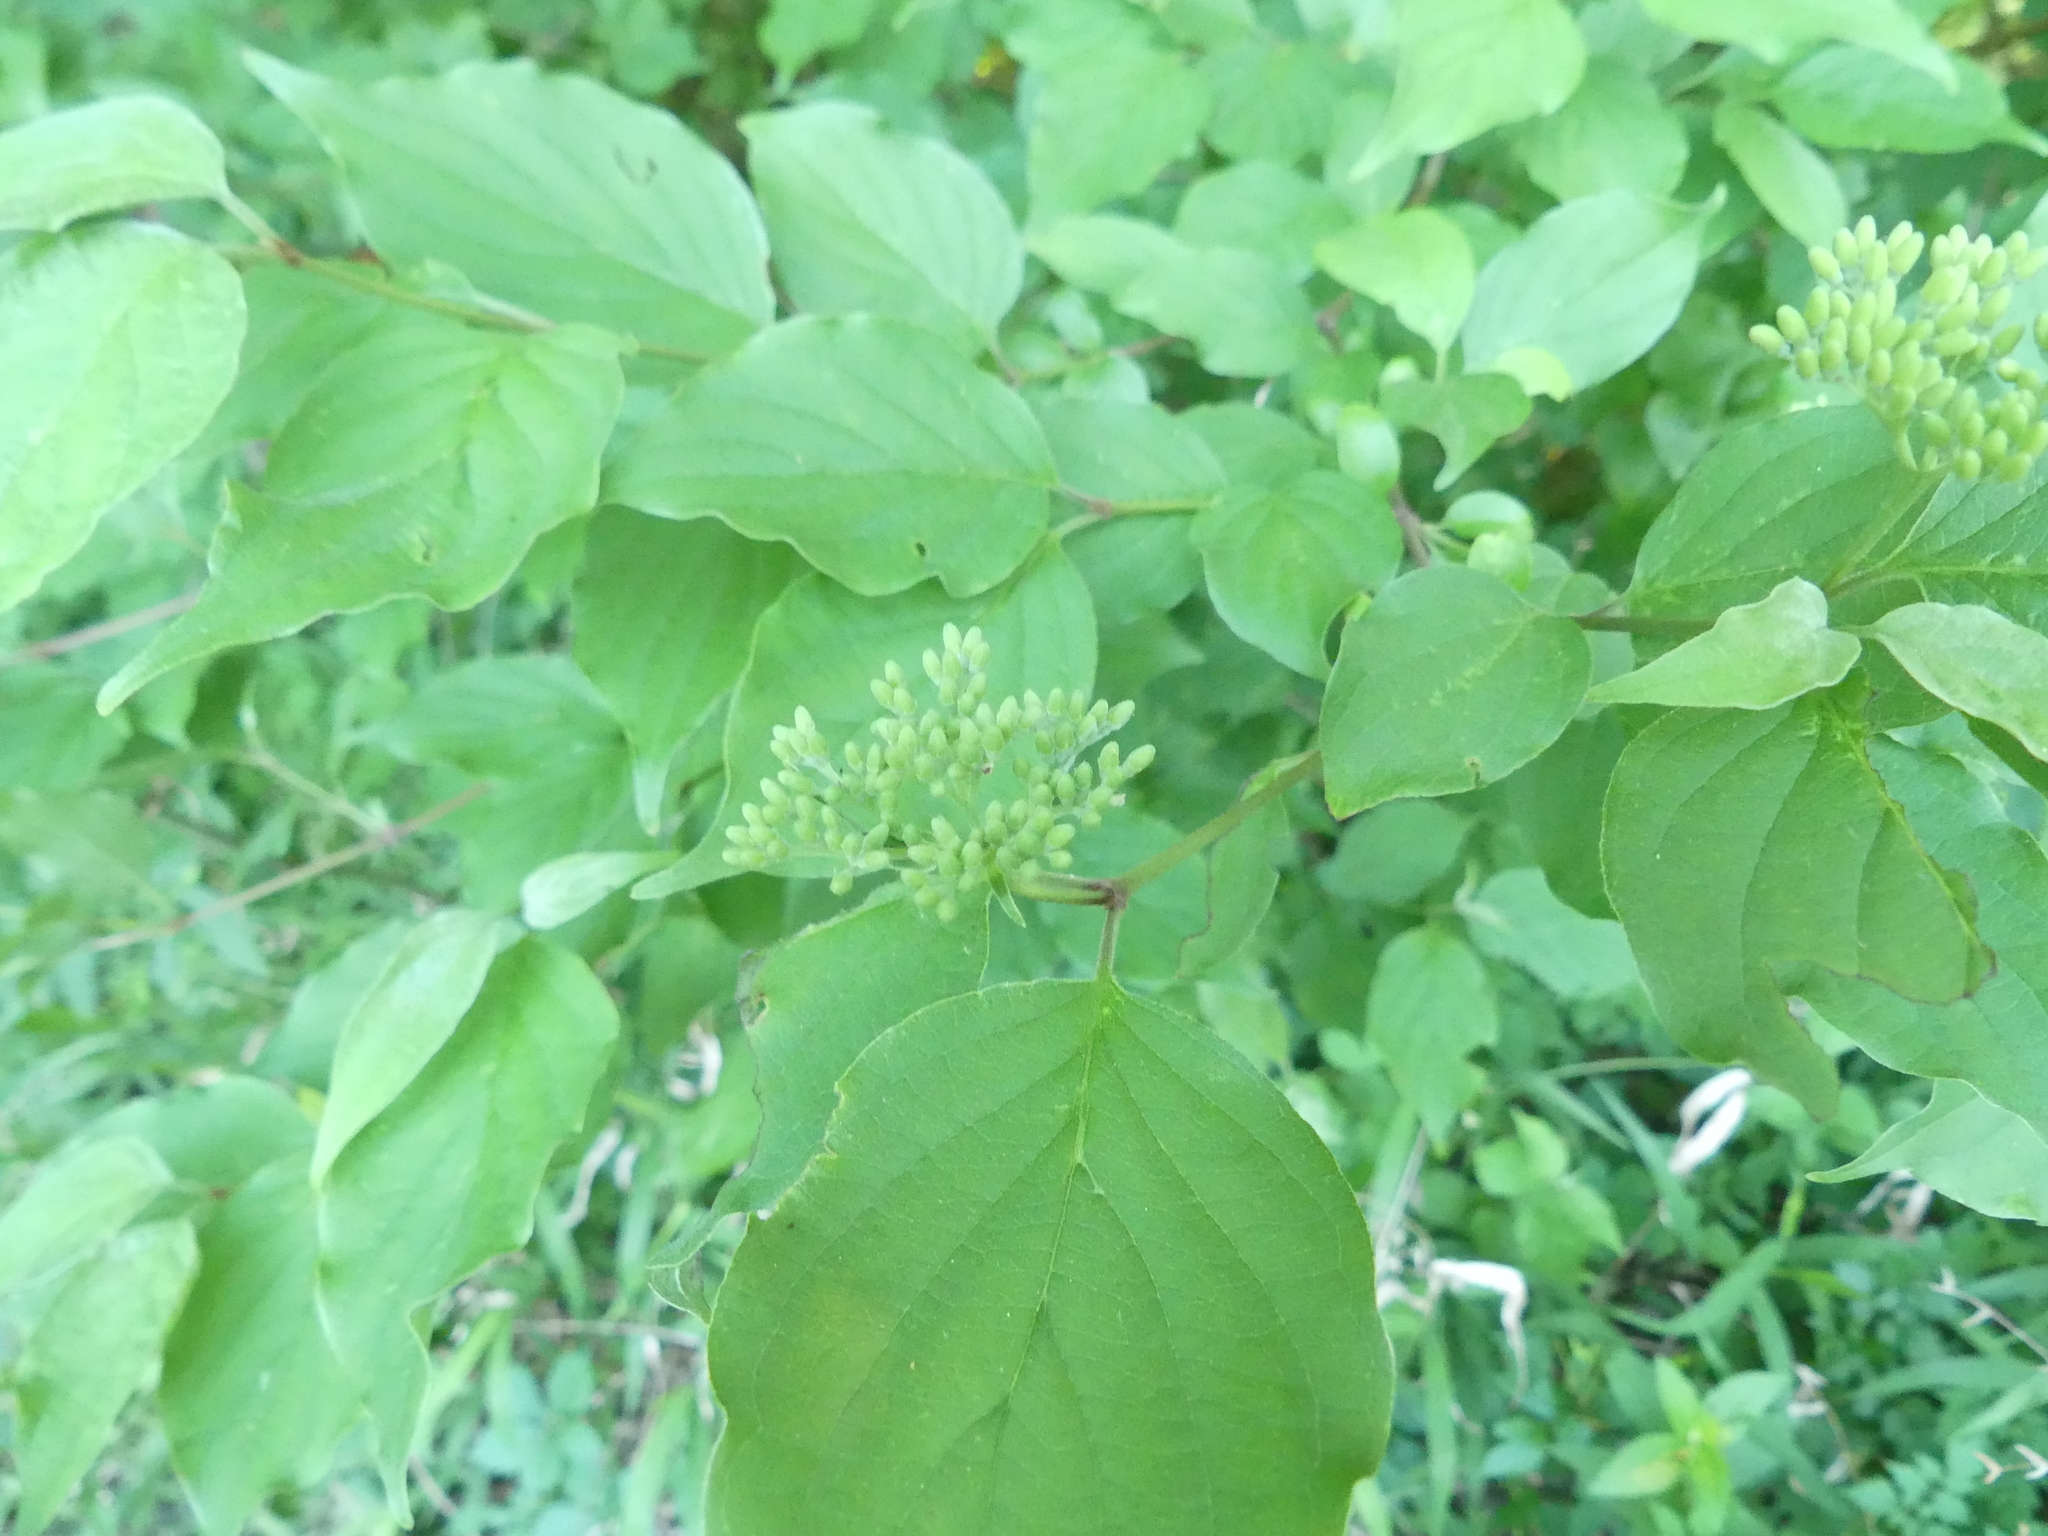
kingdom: Plantae
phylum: Tracheophyta
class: Magnoliopsida
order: Cornales
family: Cornaceae
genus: Cornus
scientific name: Cornus drummondii
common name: Rough-leaf dogwood
